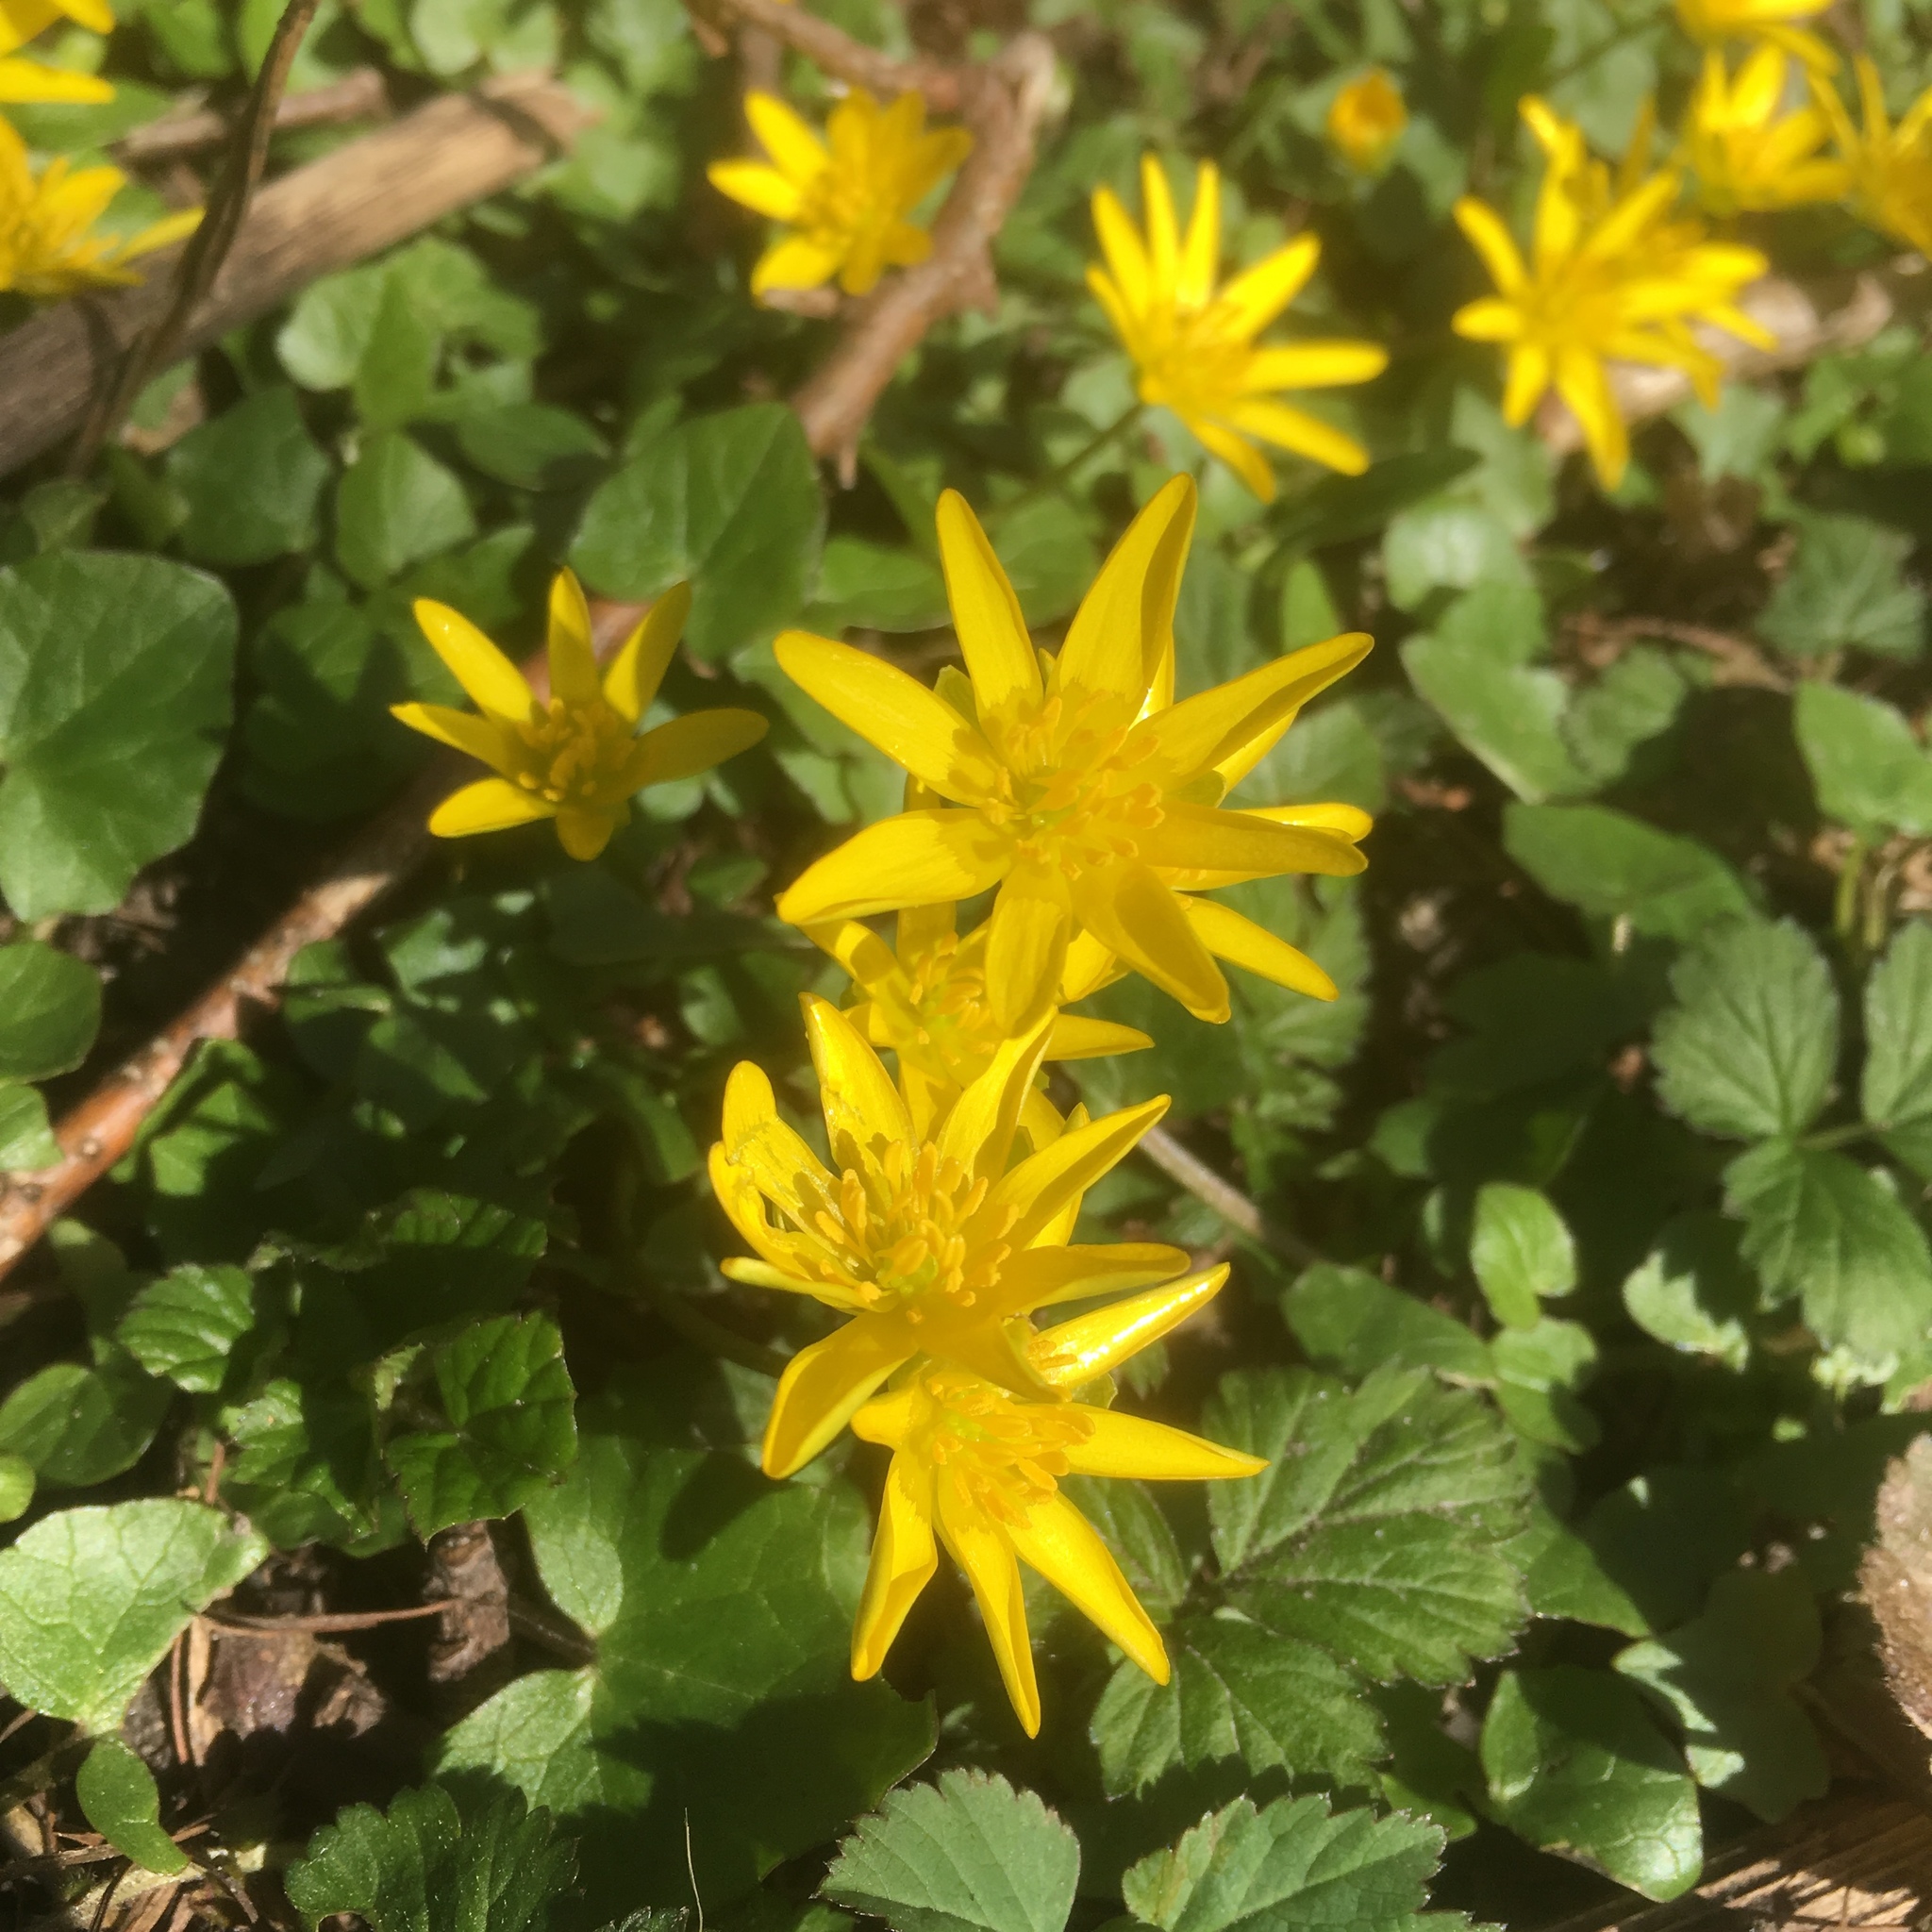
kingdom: Plantae
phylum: Tracheophyta
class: Magnoliopsida
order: Ranunculales
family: Ranunculaceae
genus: Ficaria
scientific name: Ficaria verna
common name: Lesser celandine
